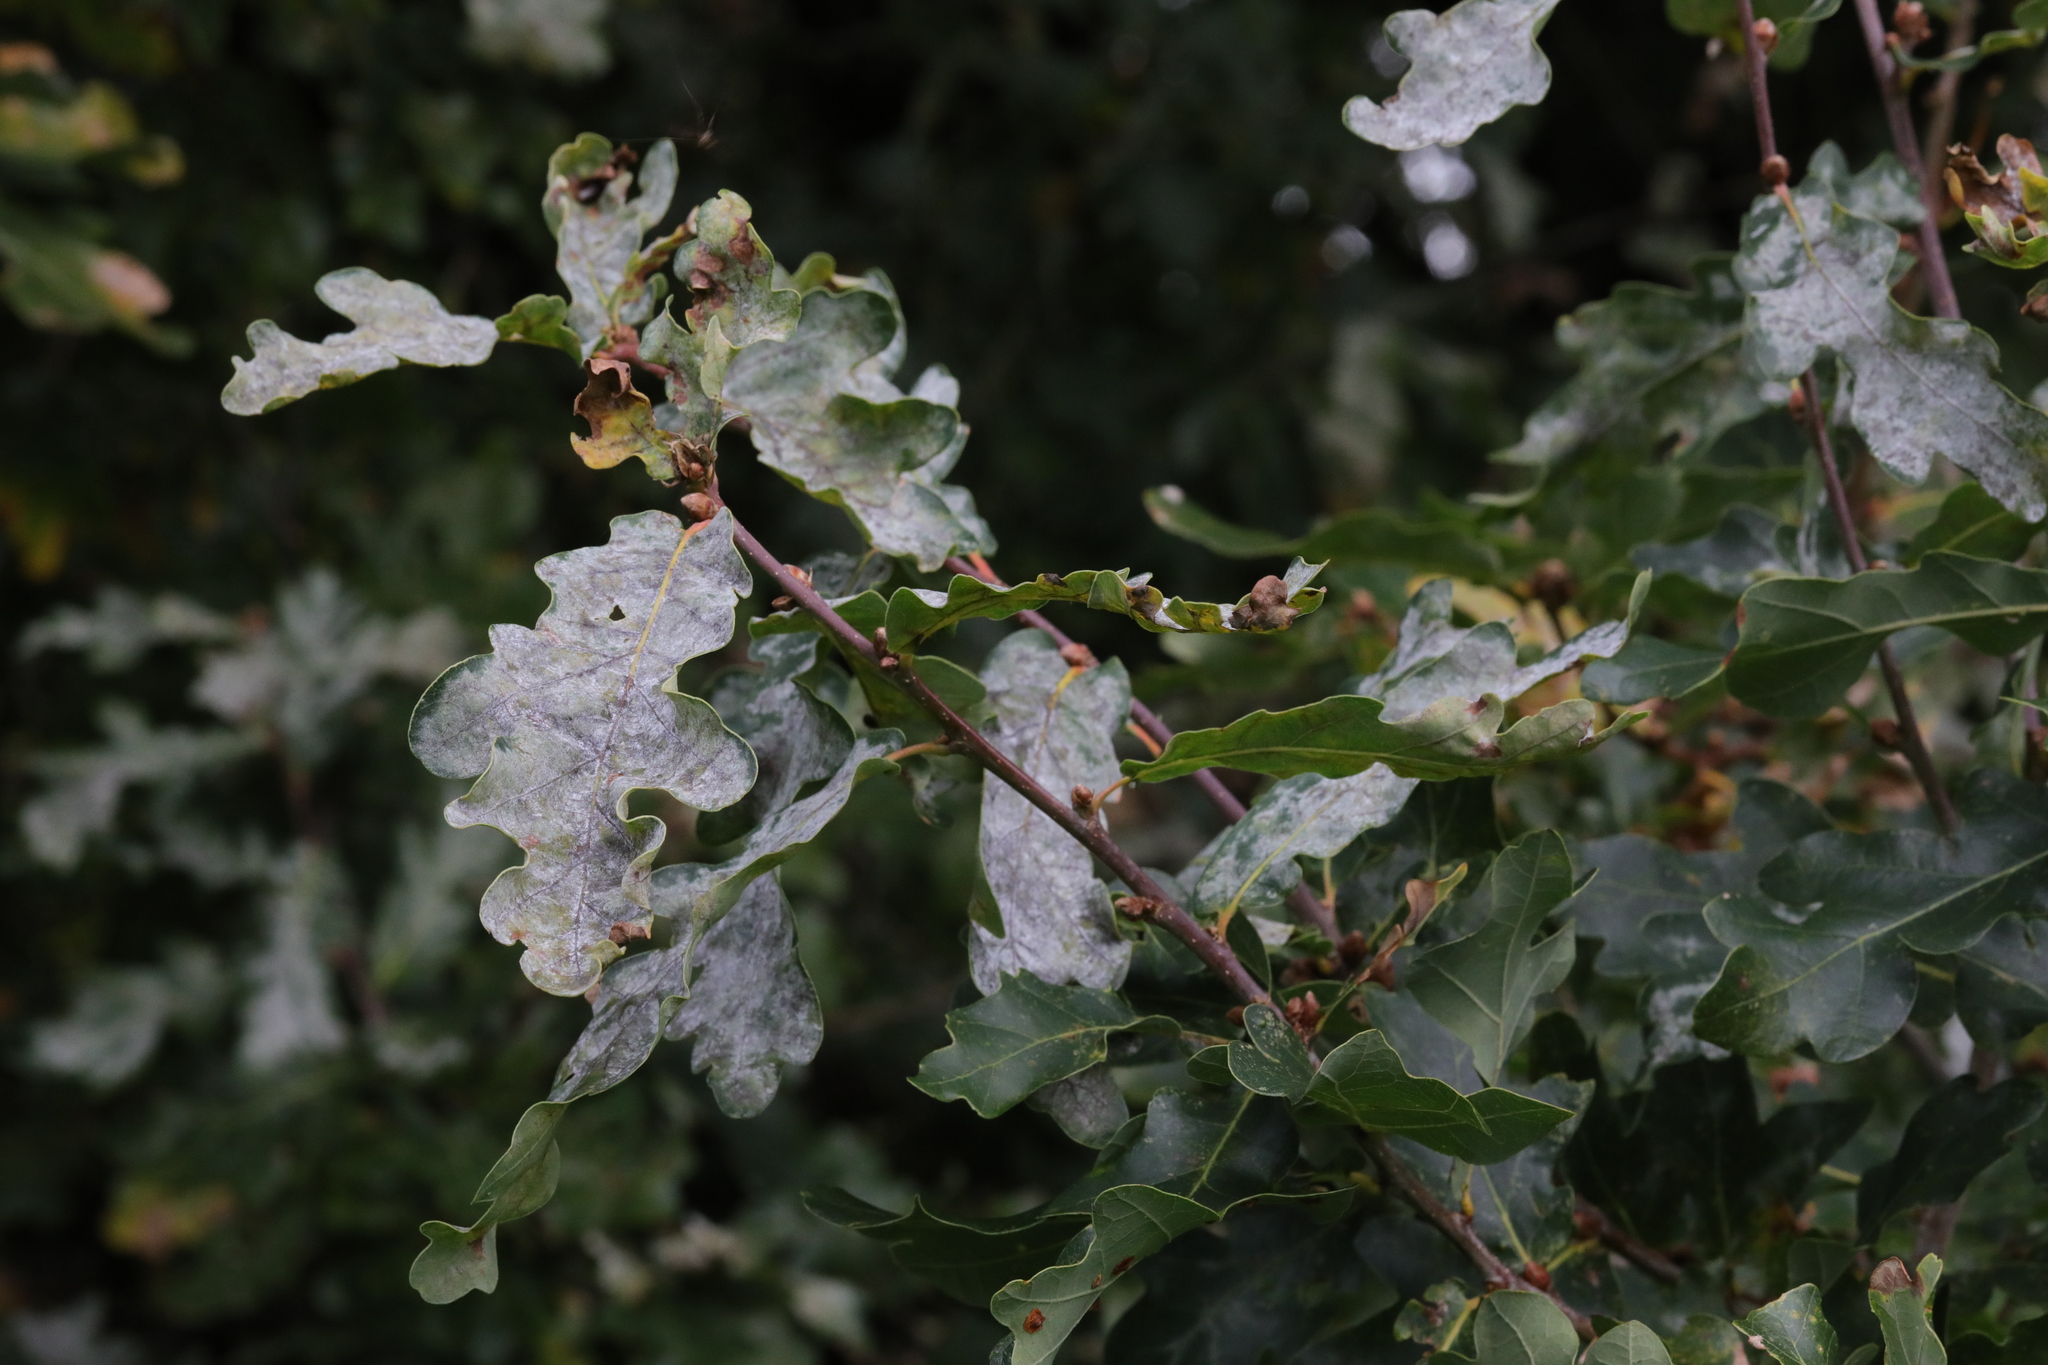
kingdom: Fungi
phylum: Ascomycota
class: Leotiomycetes
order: Helotiales
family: Erysiphaceae
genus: Erysiphe
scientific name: Erysiphe alphitoides
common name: Oak mildew
